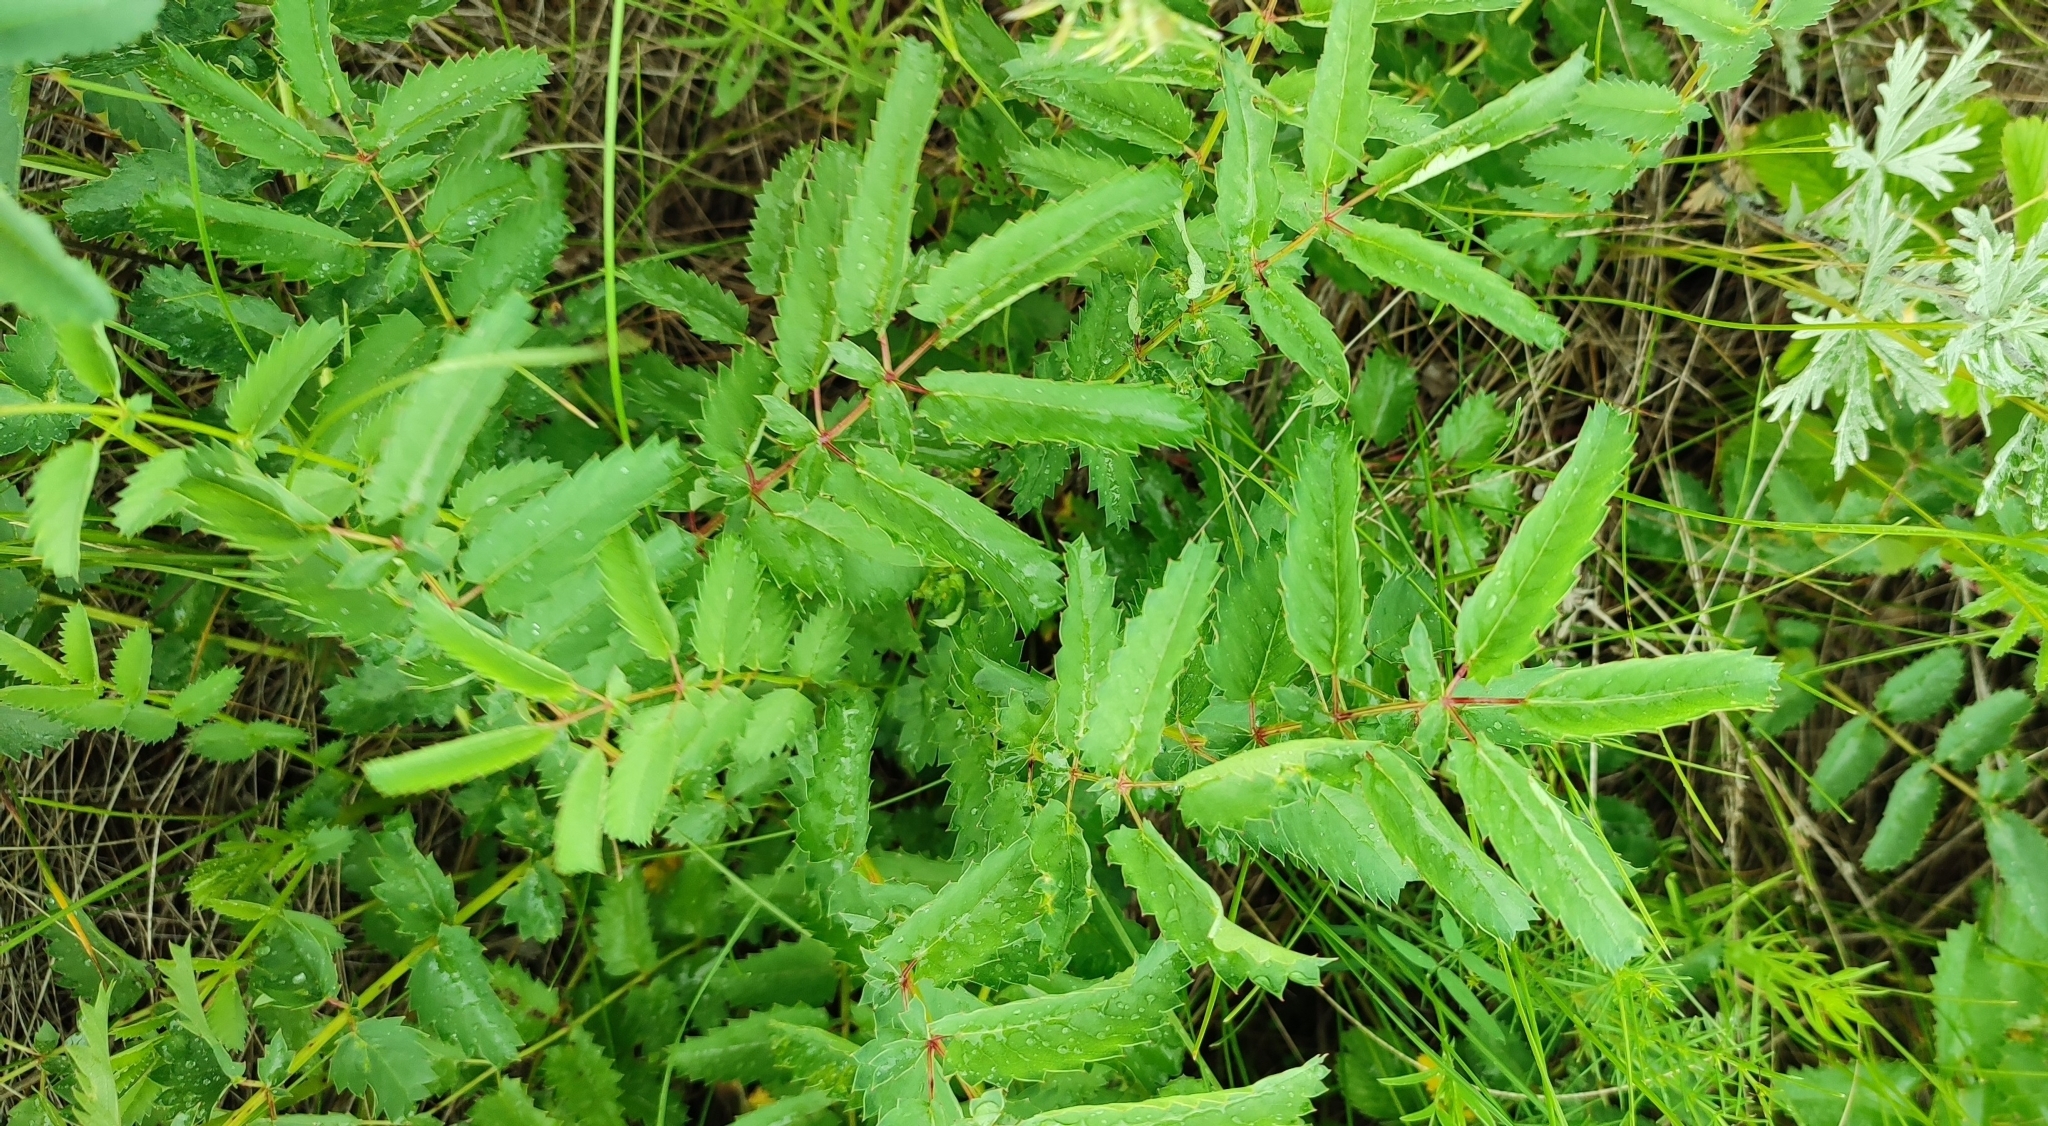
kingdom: Plantae
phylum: Tracheophyta
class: Magnoliopsida
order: Rosales
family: Rosaceae
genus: Sanguisorba
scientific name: Sanguisorba officinalis
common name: Great burnet
